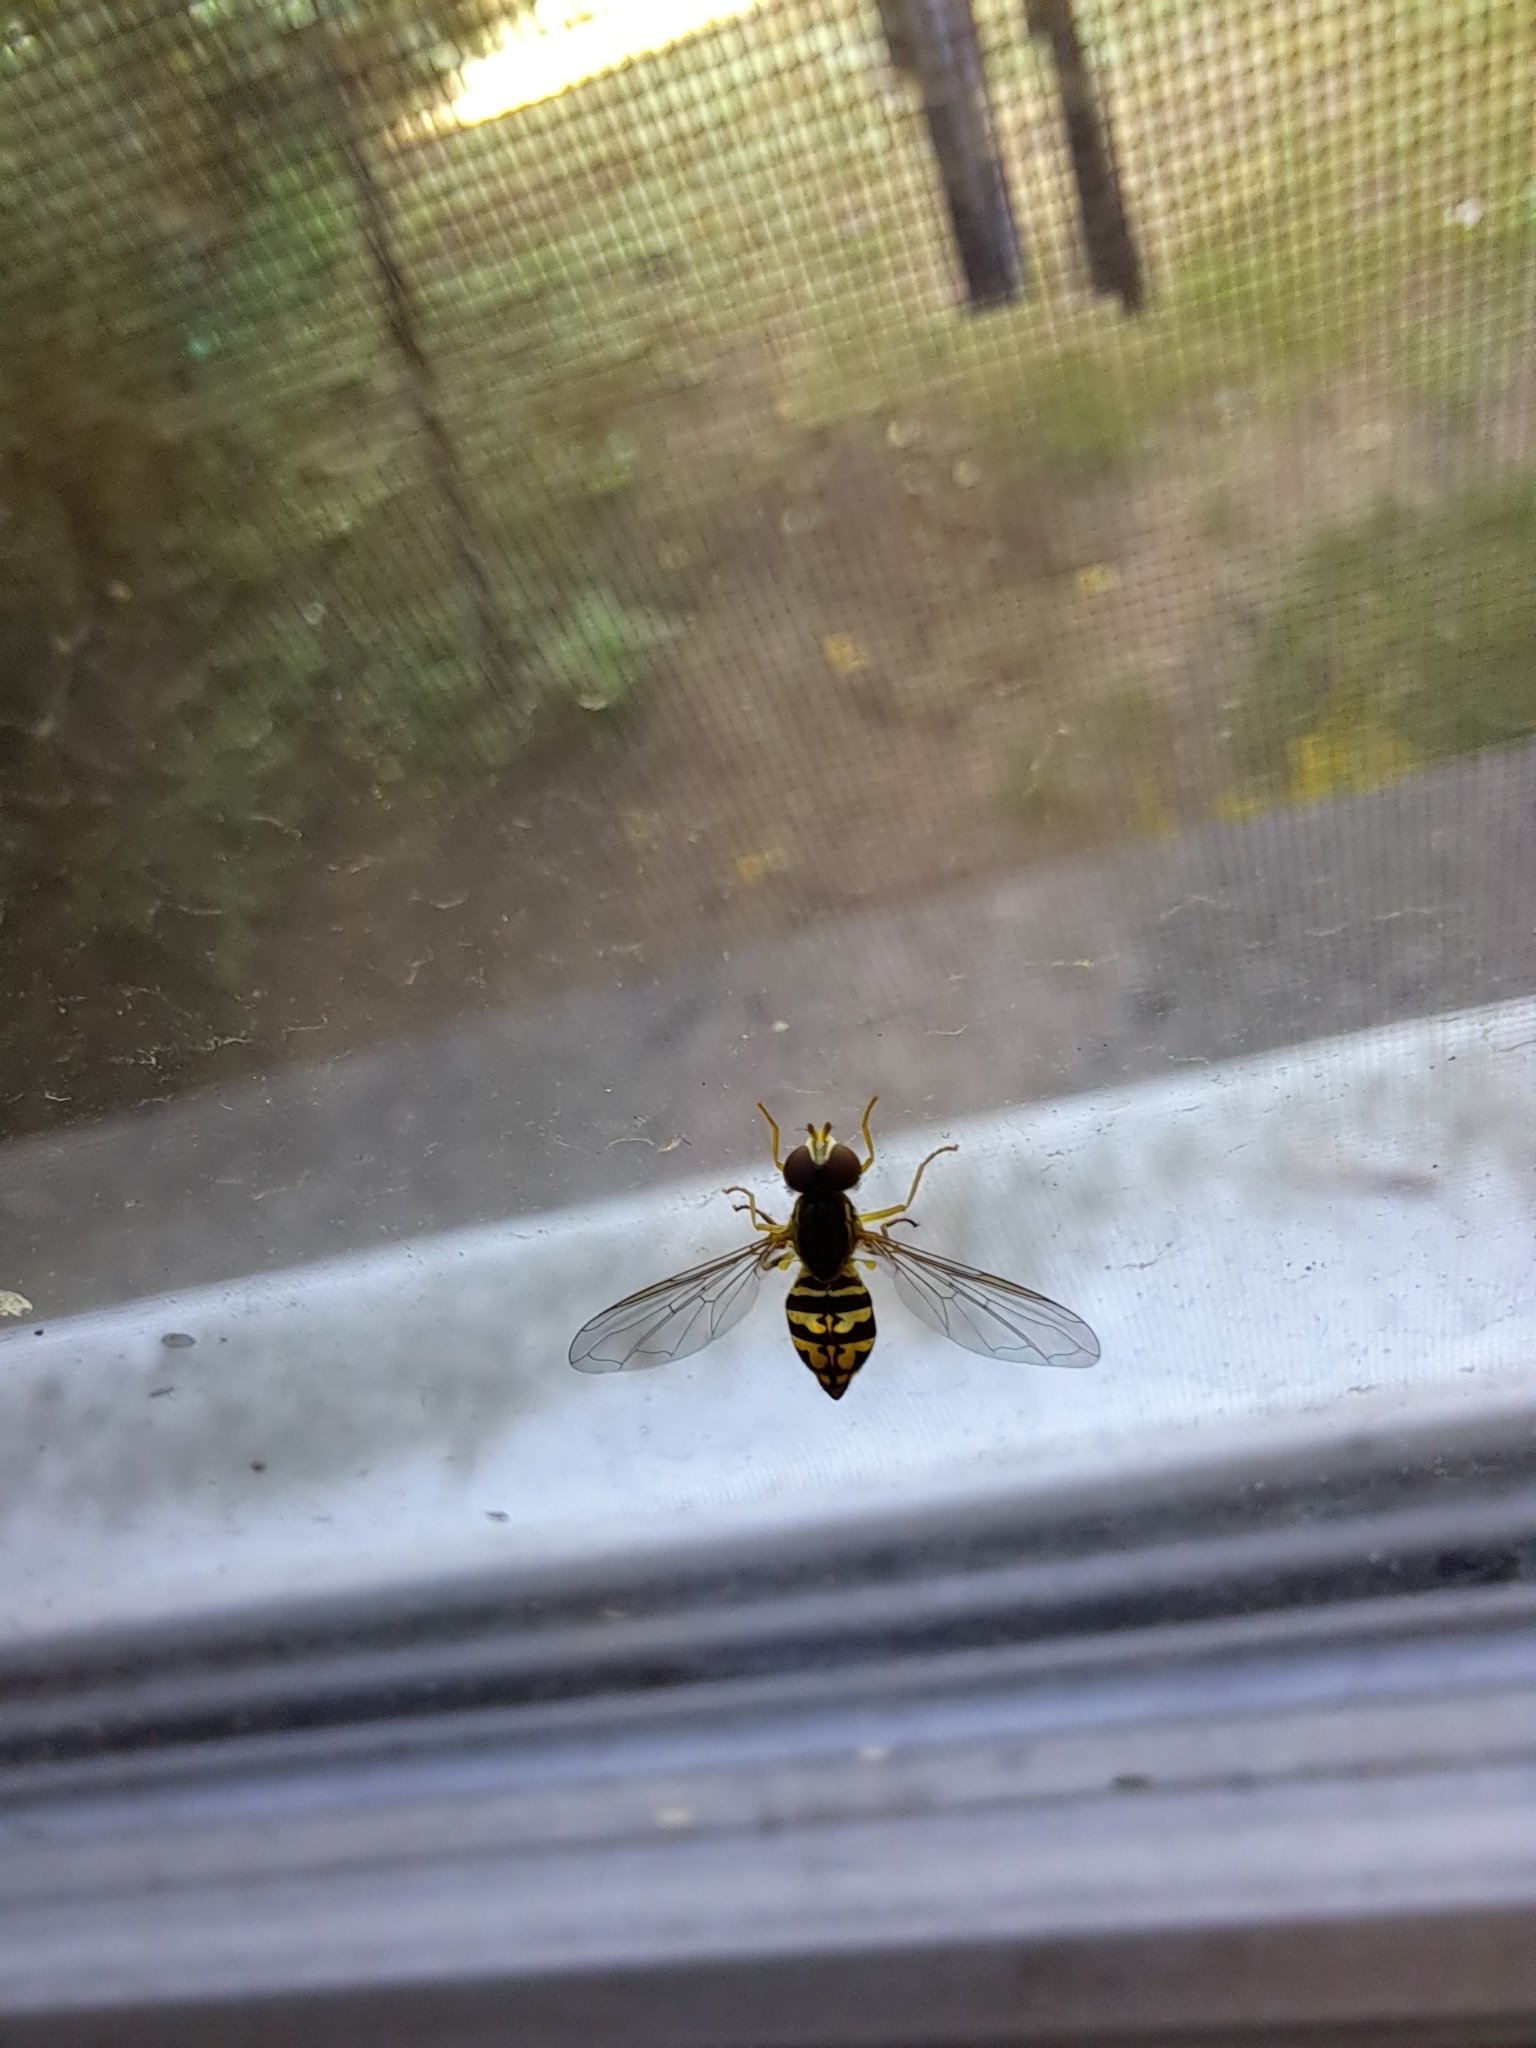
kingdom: Animalia
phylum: Arthropoda
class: Insecta
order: Diptera
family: Syrphidae
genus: Toxomerus
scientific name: Toxomerus geminatus
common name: Eastern calligrapher
